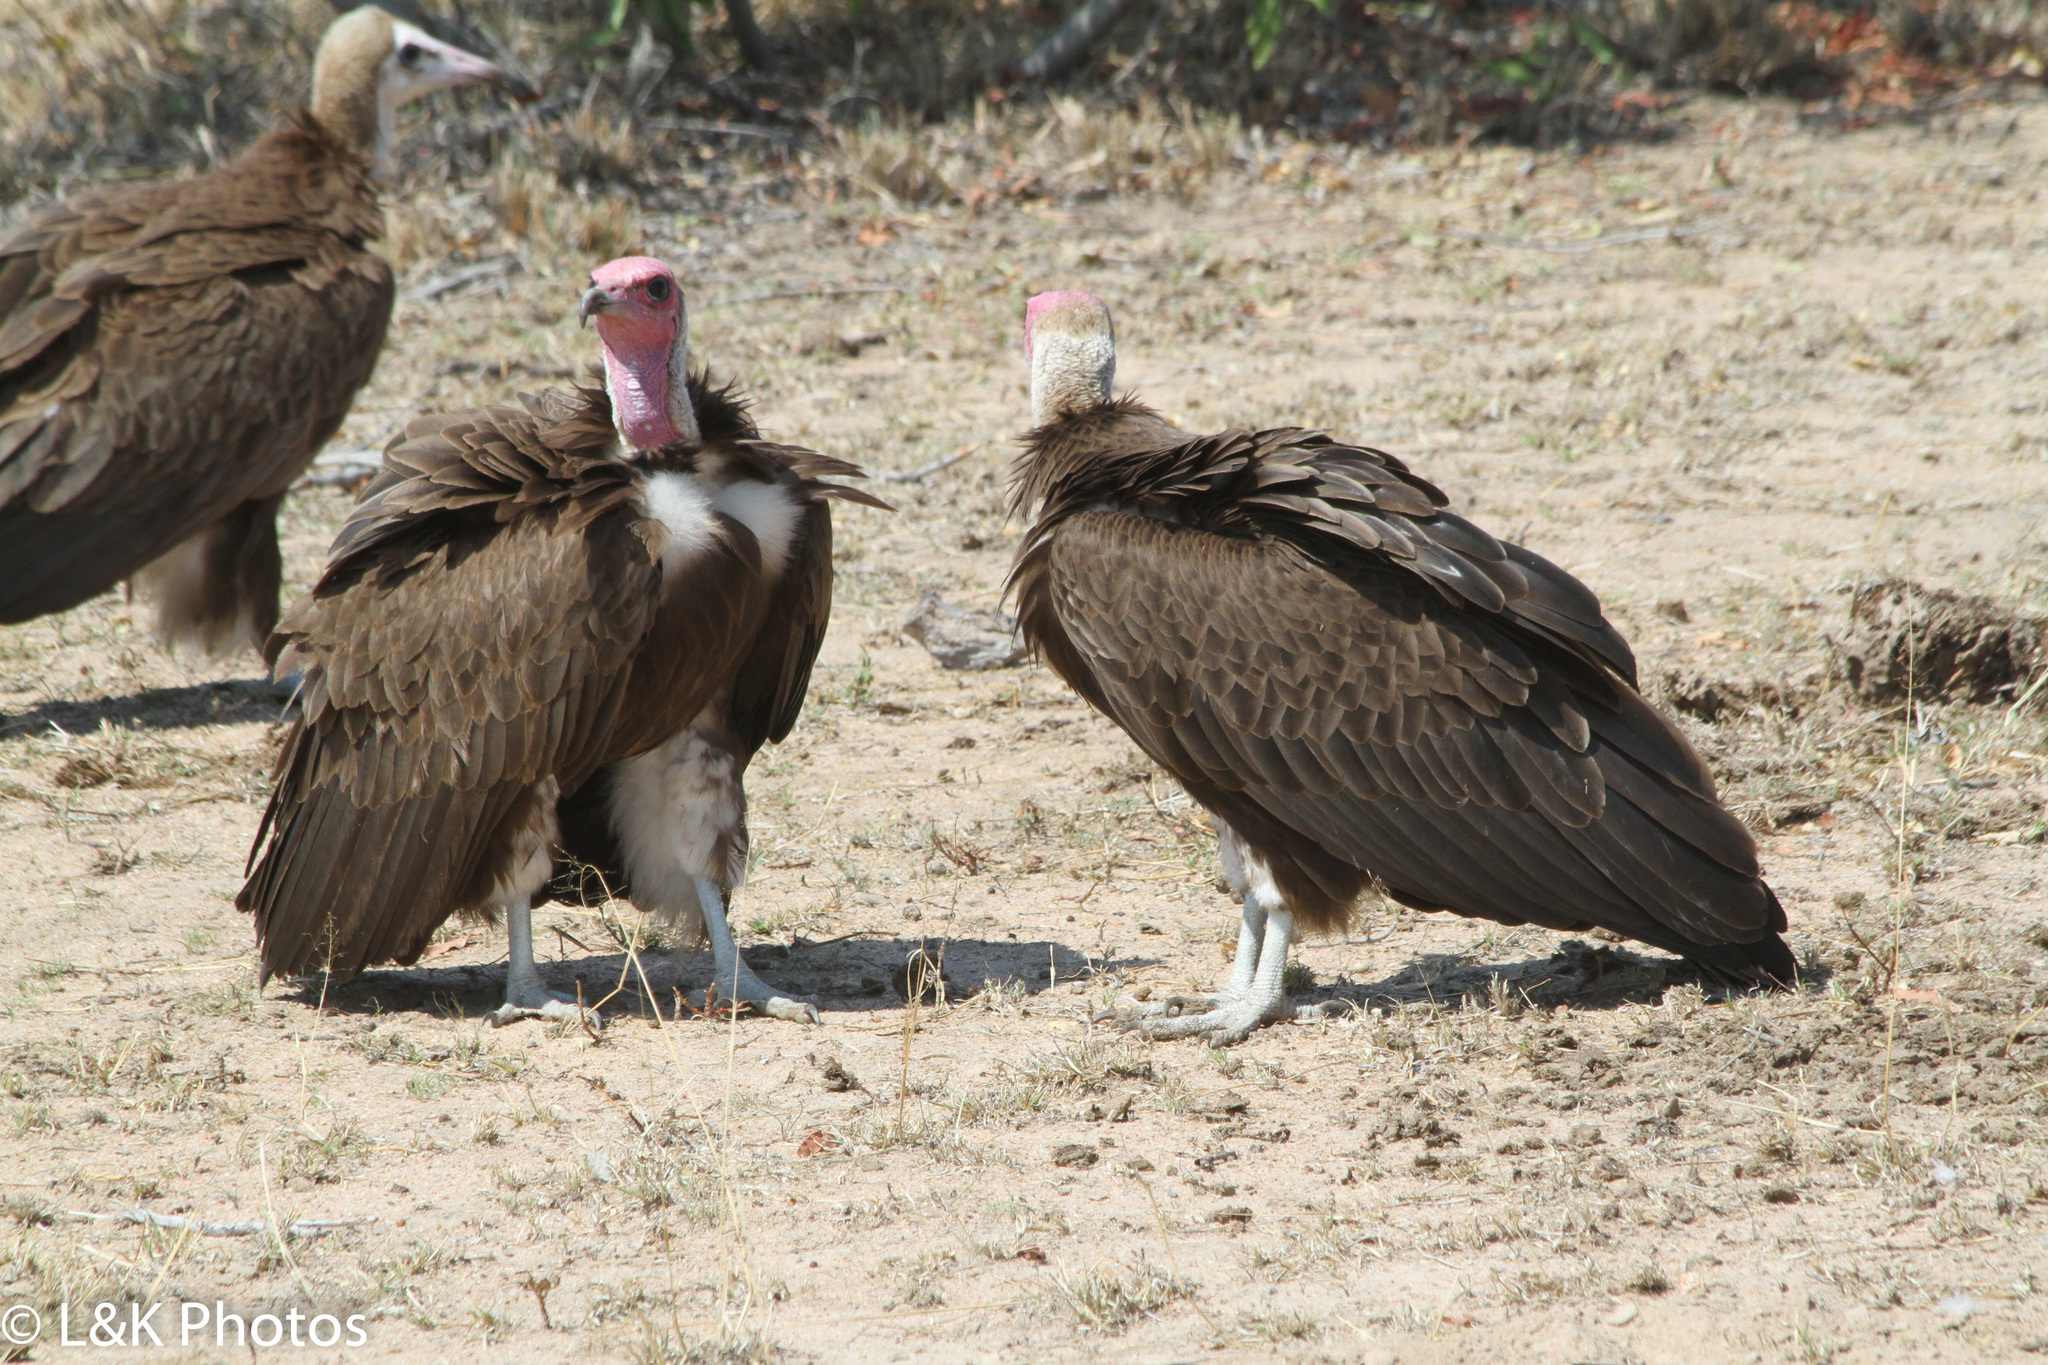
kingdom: Animalia
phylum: Chordata
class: Aves
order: Accipitriformes
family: Accipitridae
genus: Necrosyrtes
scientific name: Necrosyrtes monachus
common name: Hooded vulture
